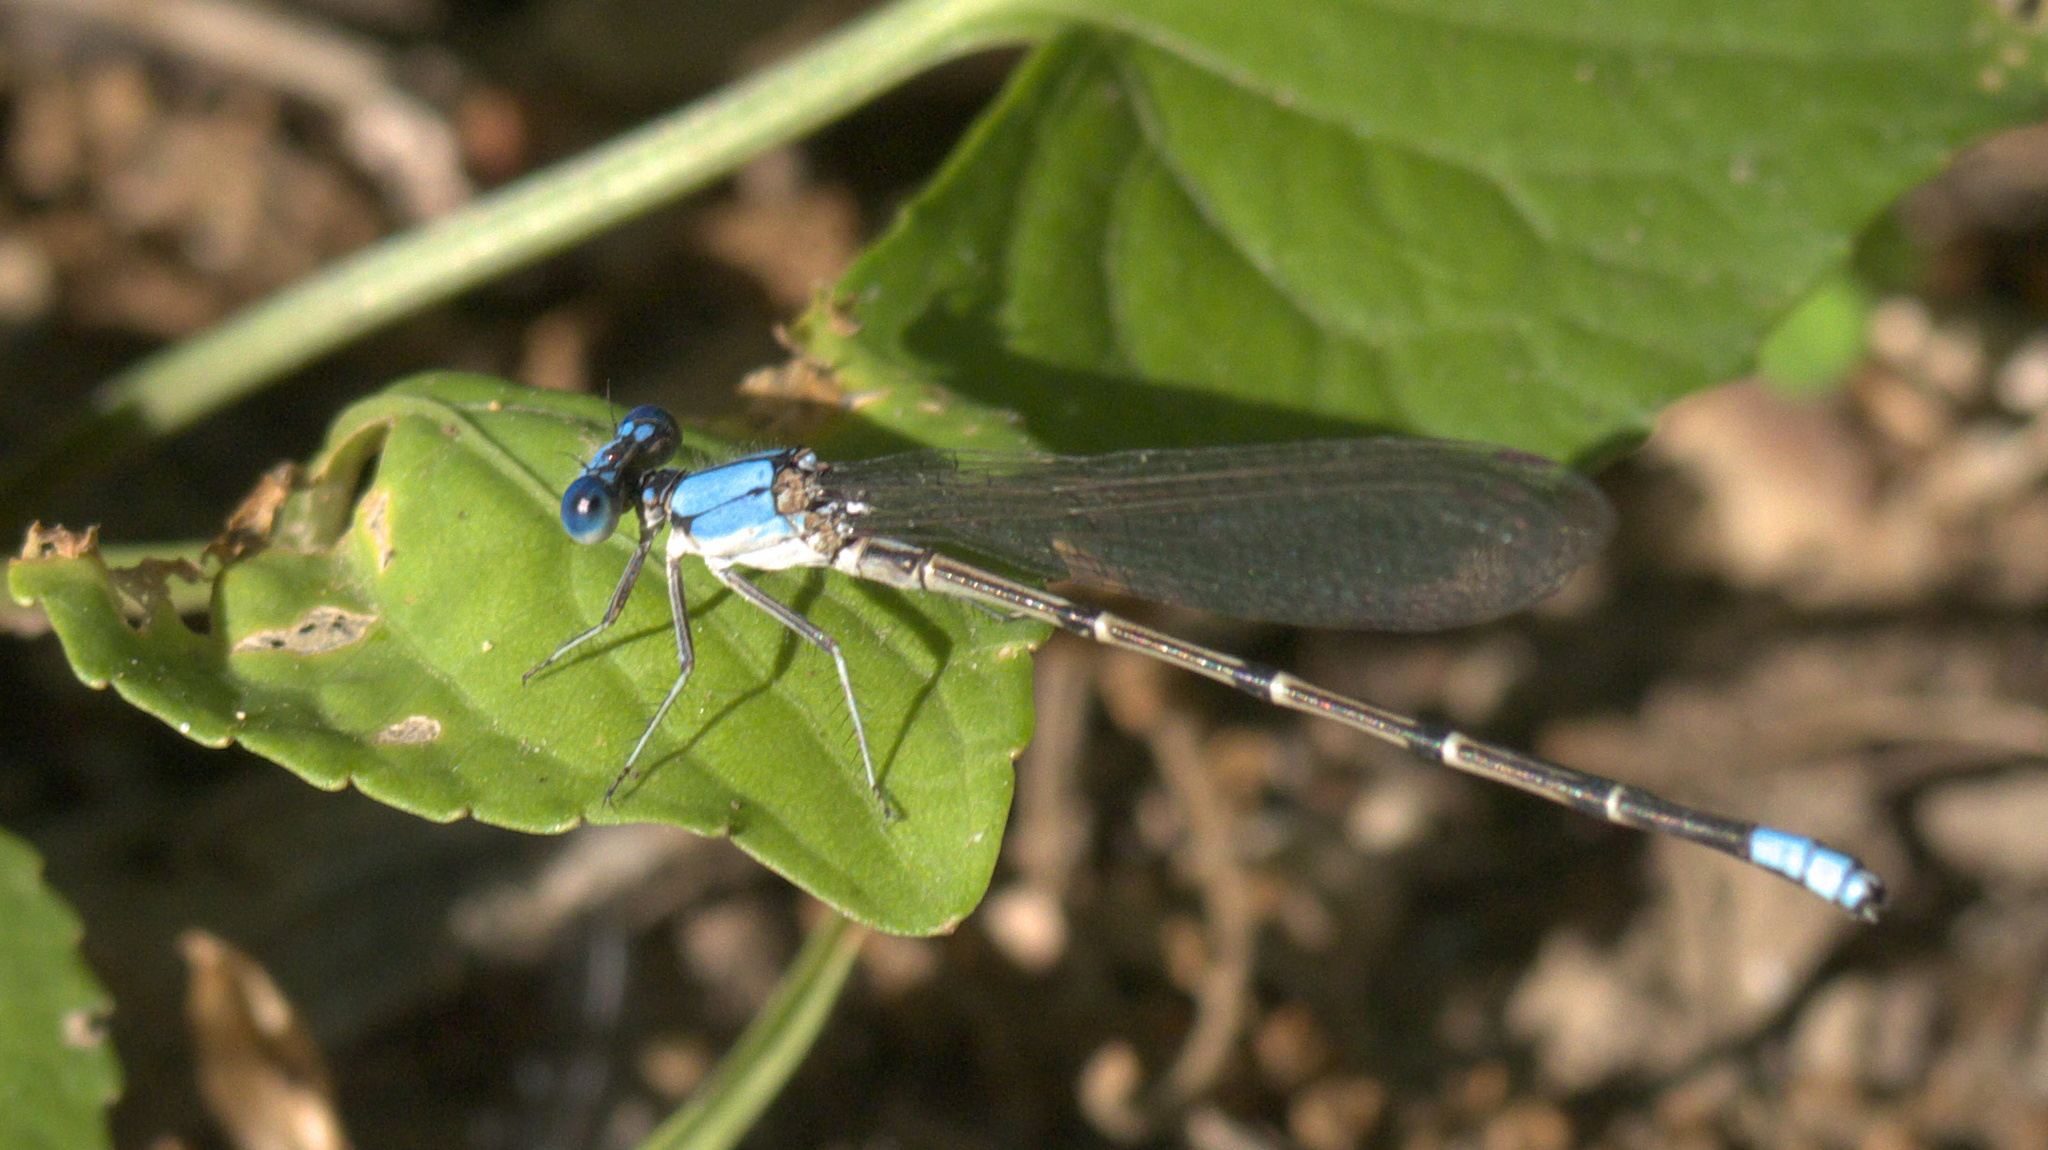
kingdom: Animalia
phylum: Arthropoda
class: Insecta
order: Odonata
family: Coenagrionidae
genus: Argia
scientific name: Argia apicalis
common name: Blue-fronted dancer
